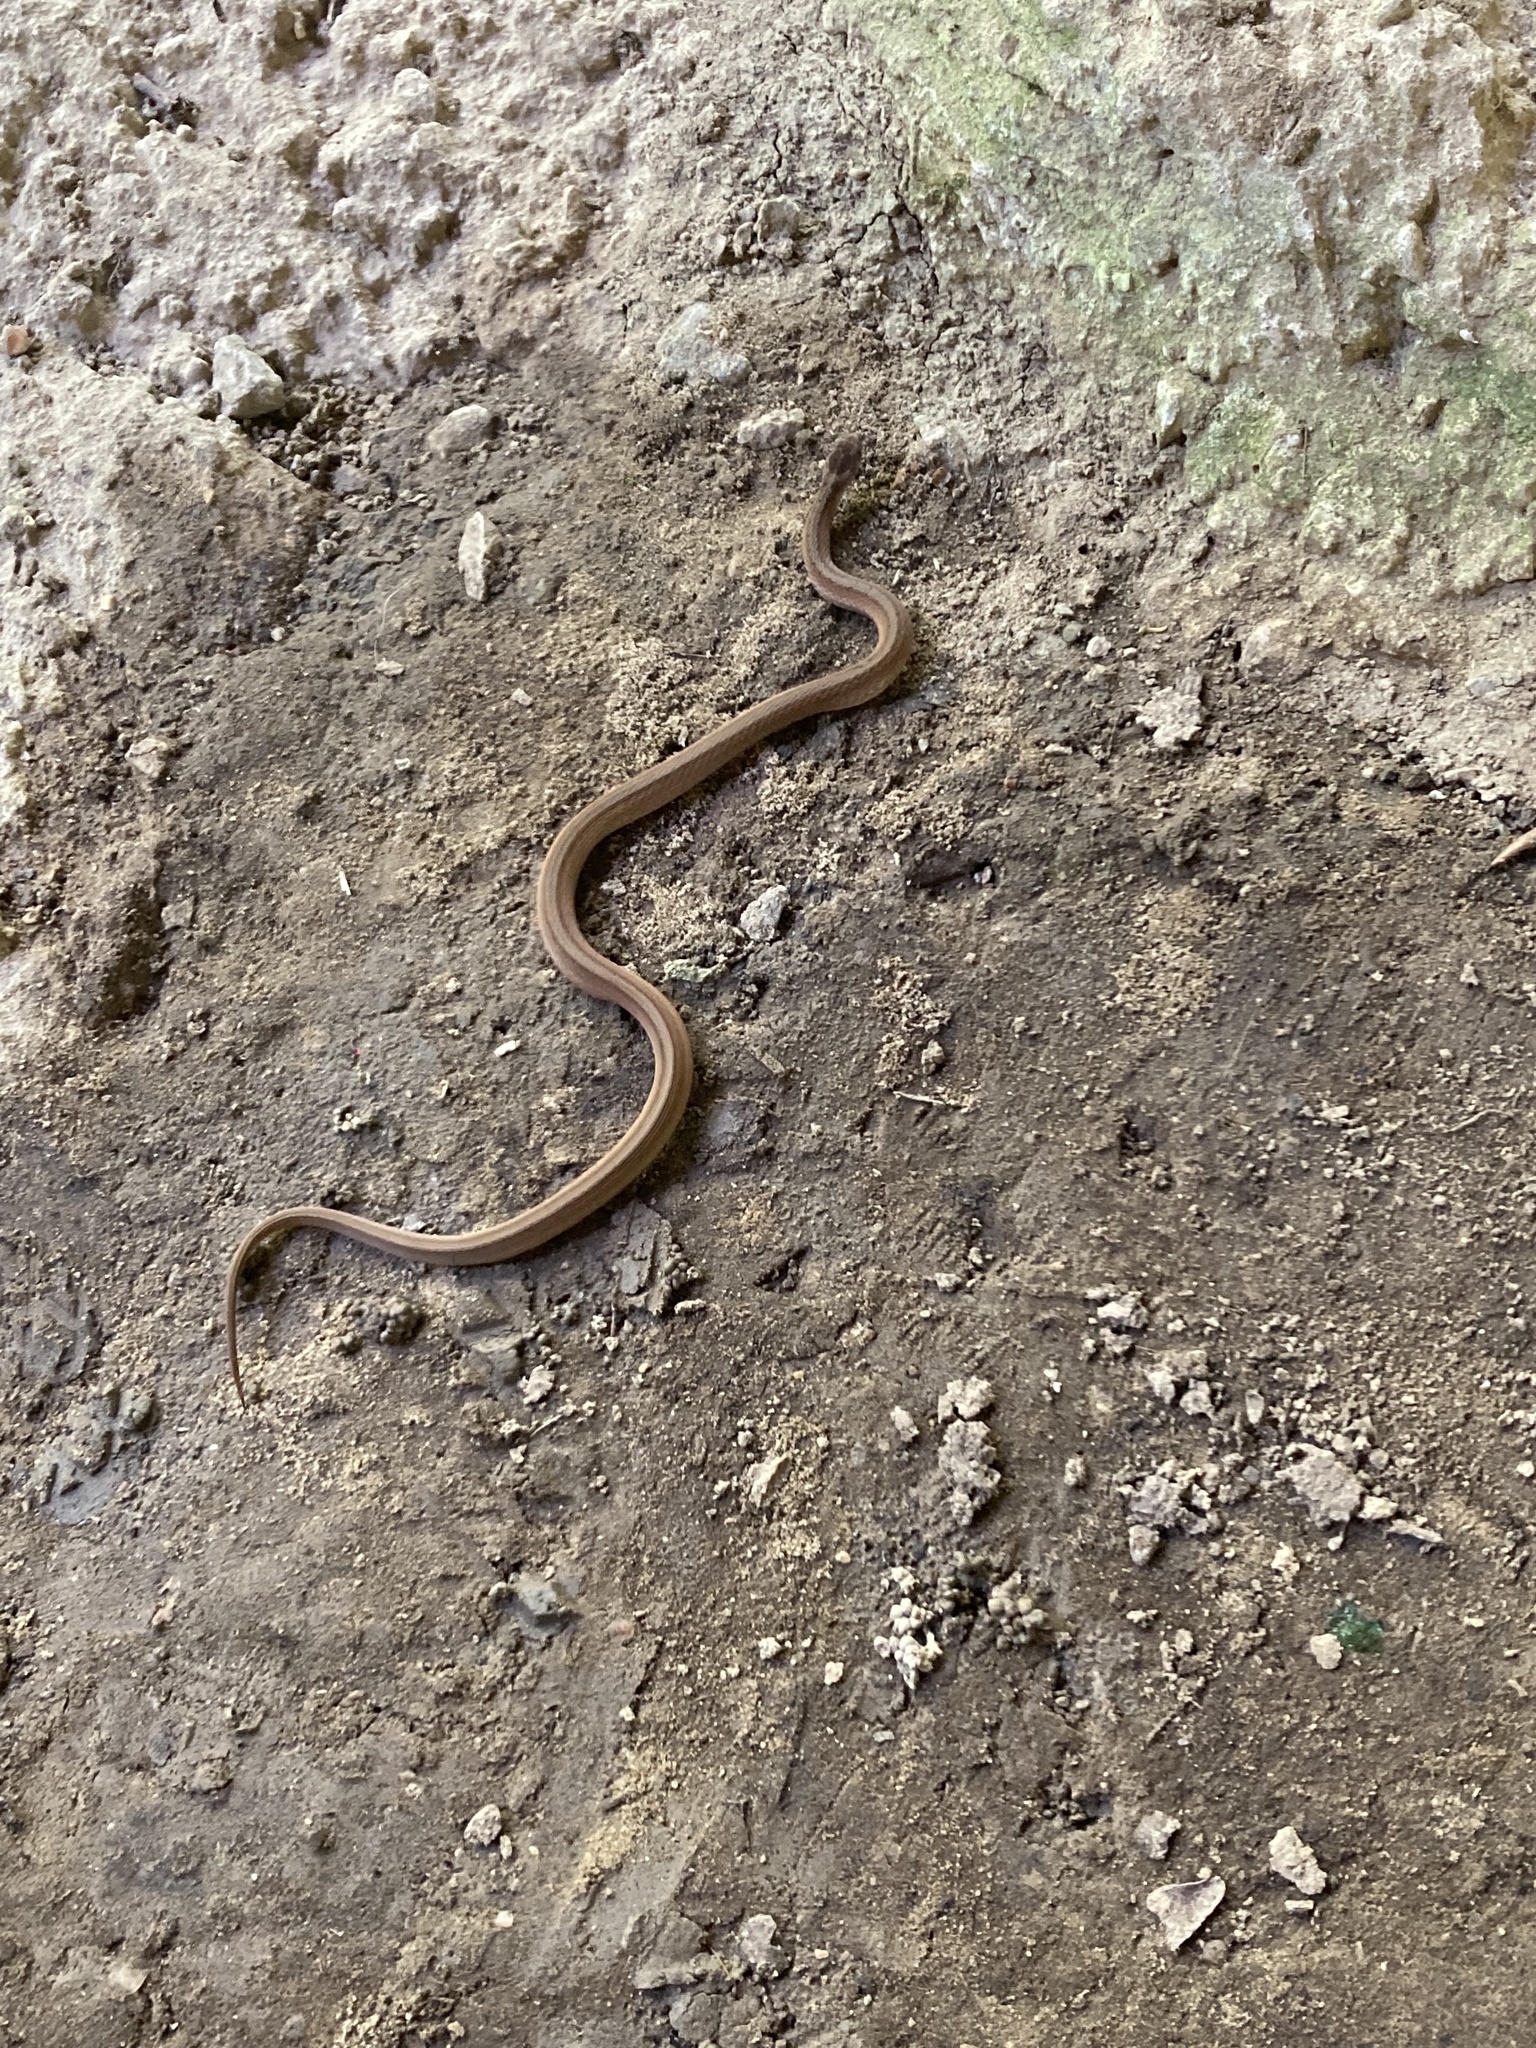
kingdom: Animalia
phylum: Chordata
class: Squamata
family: Colubridae
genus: Storeria
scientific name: Storeria dekayi
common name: (dekay’s) brown snake
